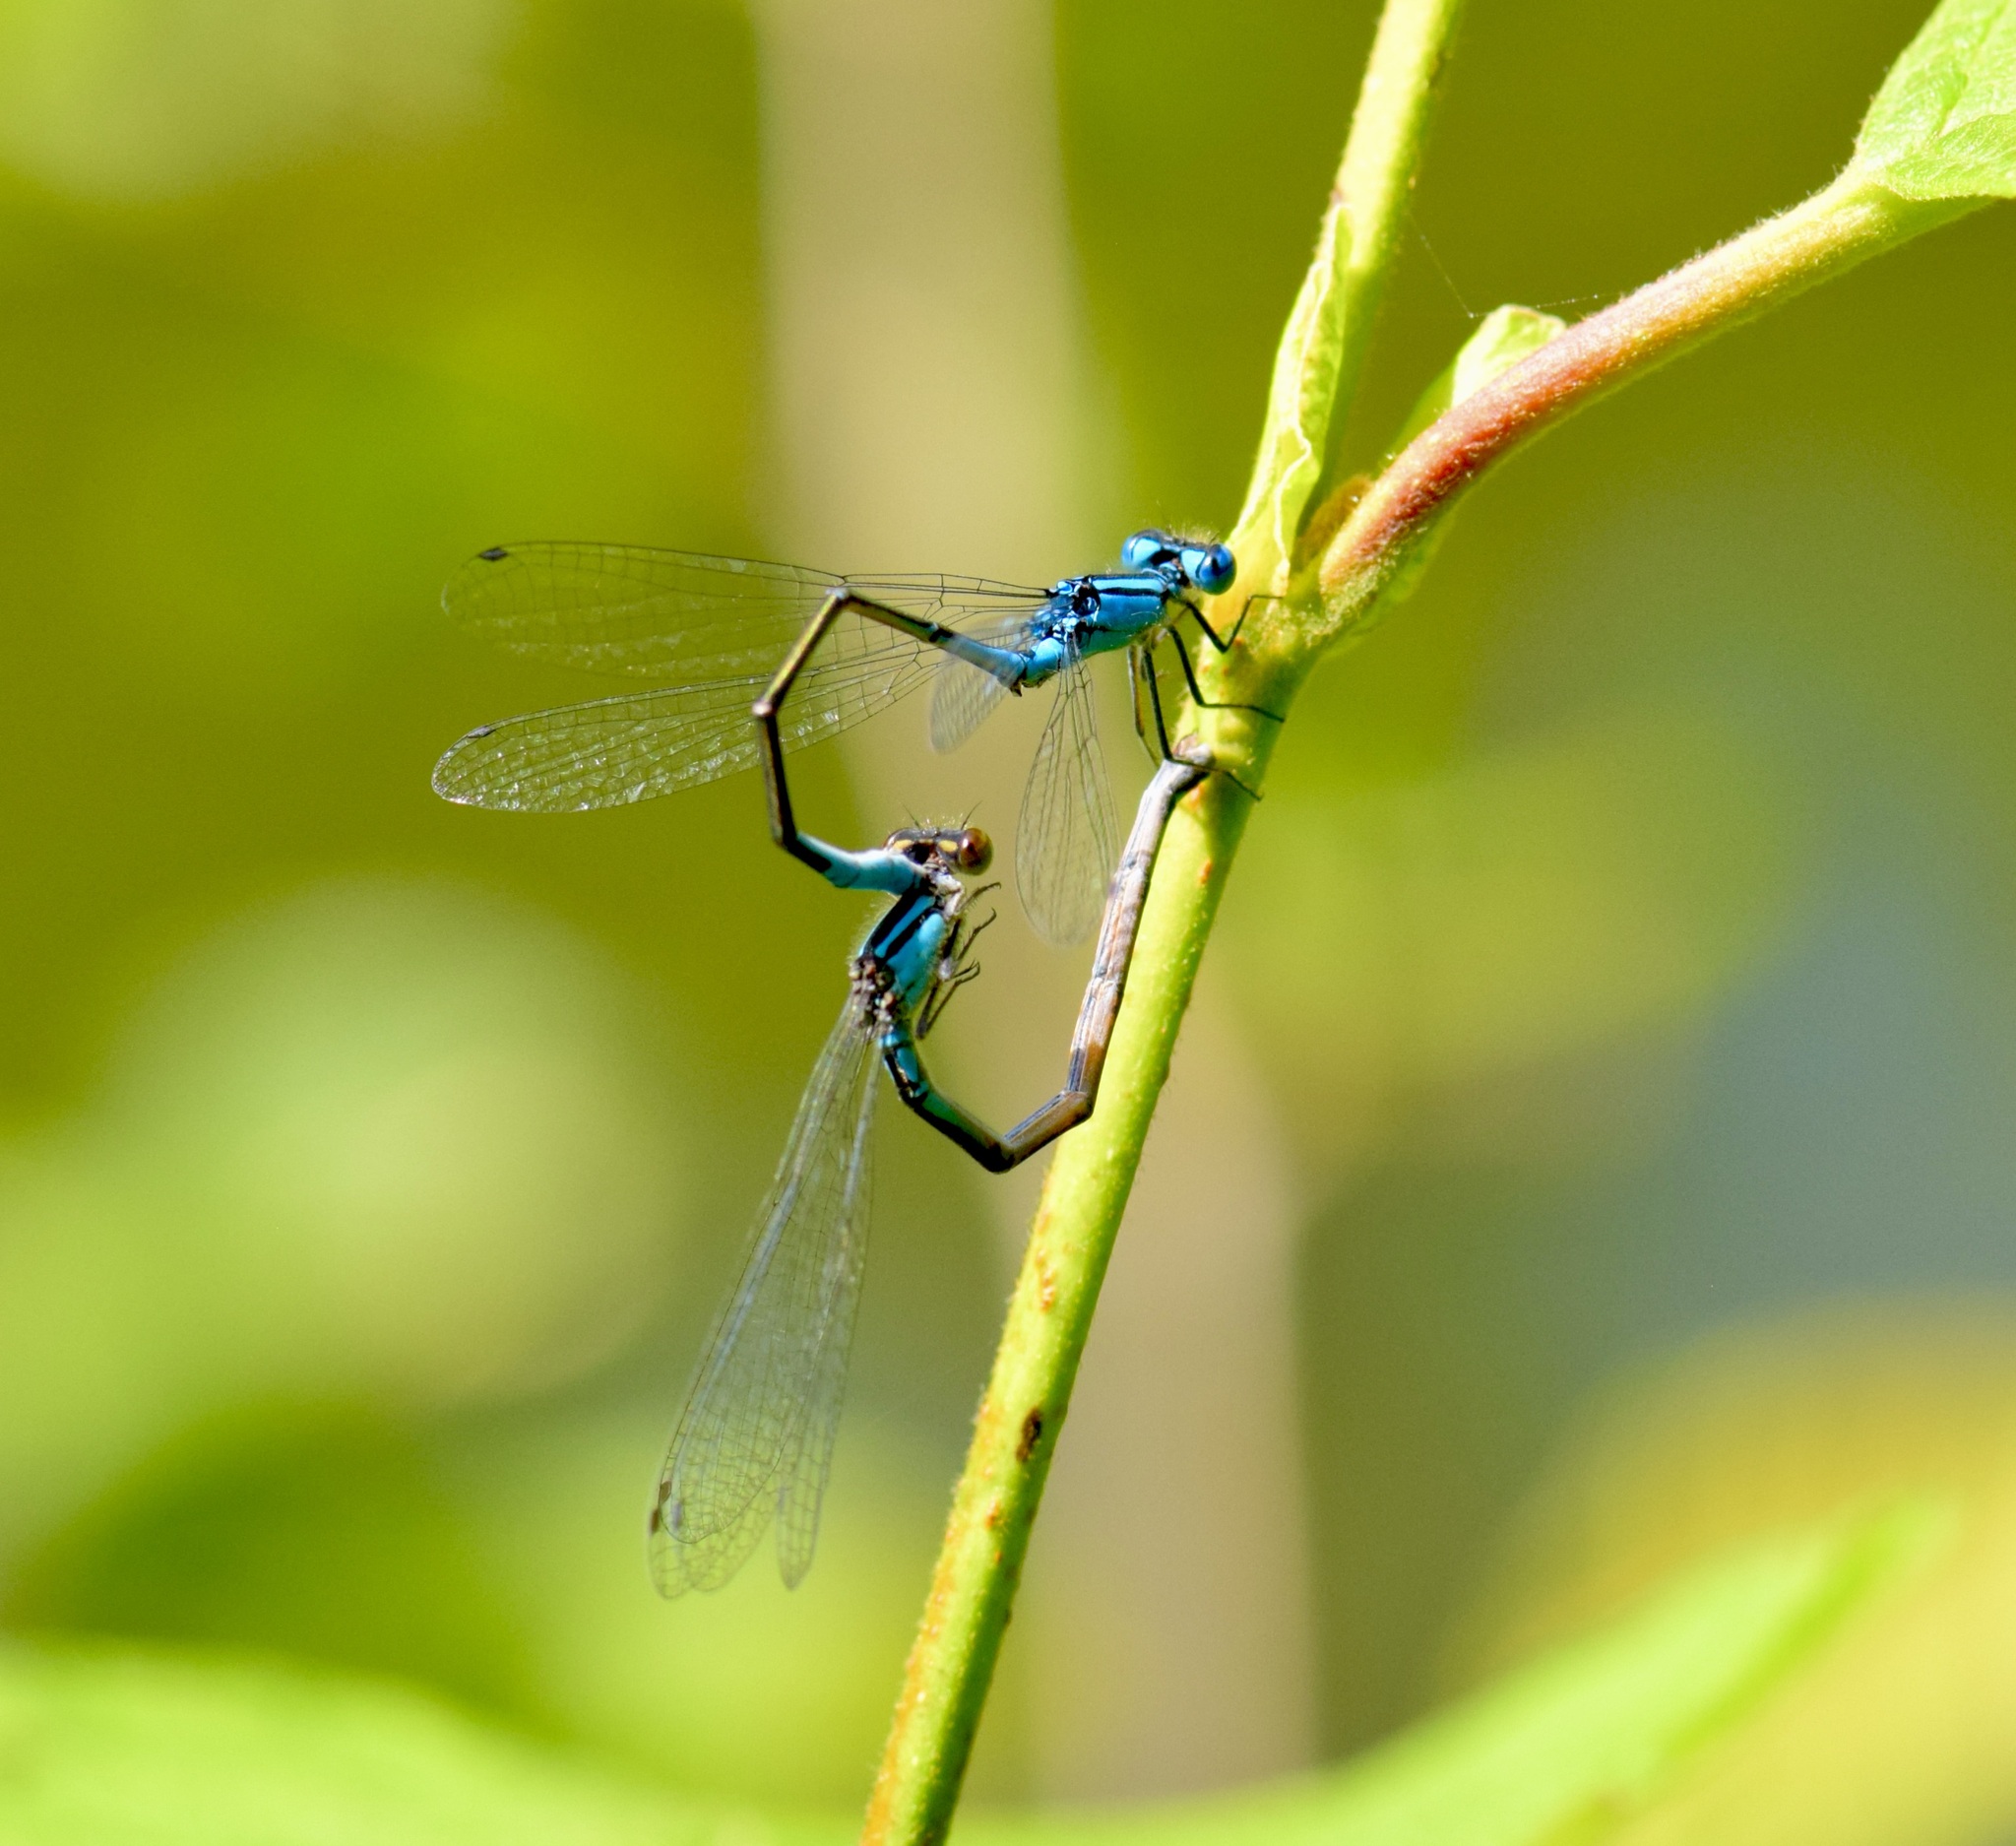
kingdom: Animalia
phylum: Arthropoda
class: Insecta
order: Odonata
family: Coenagrionidae
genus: Enallagma
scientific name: Enallagma aspersum
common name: Azure bluet
